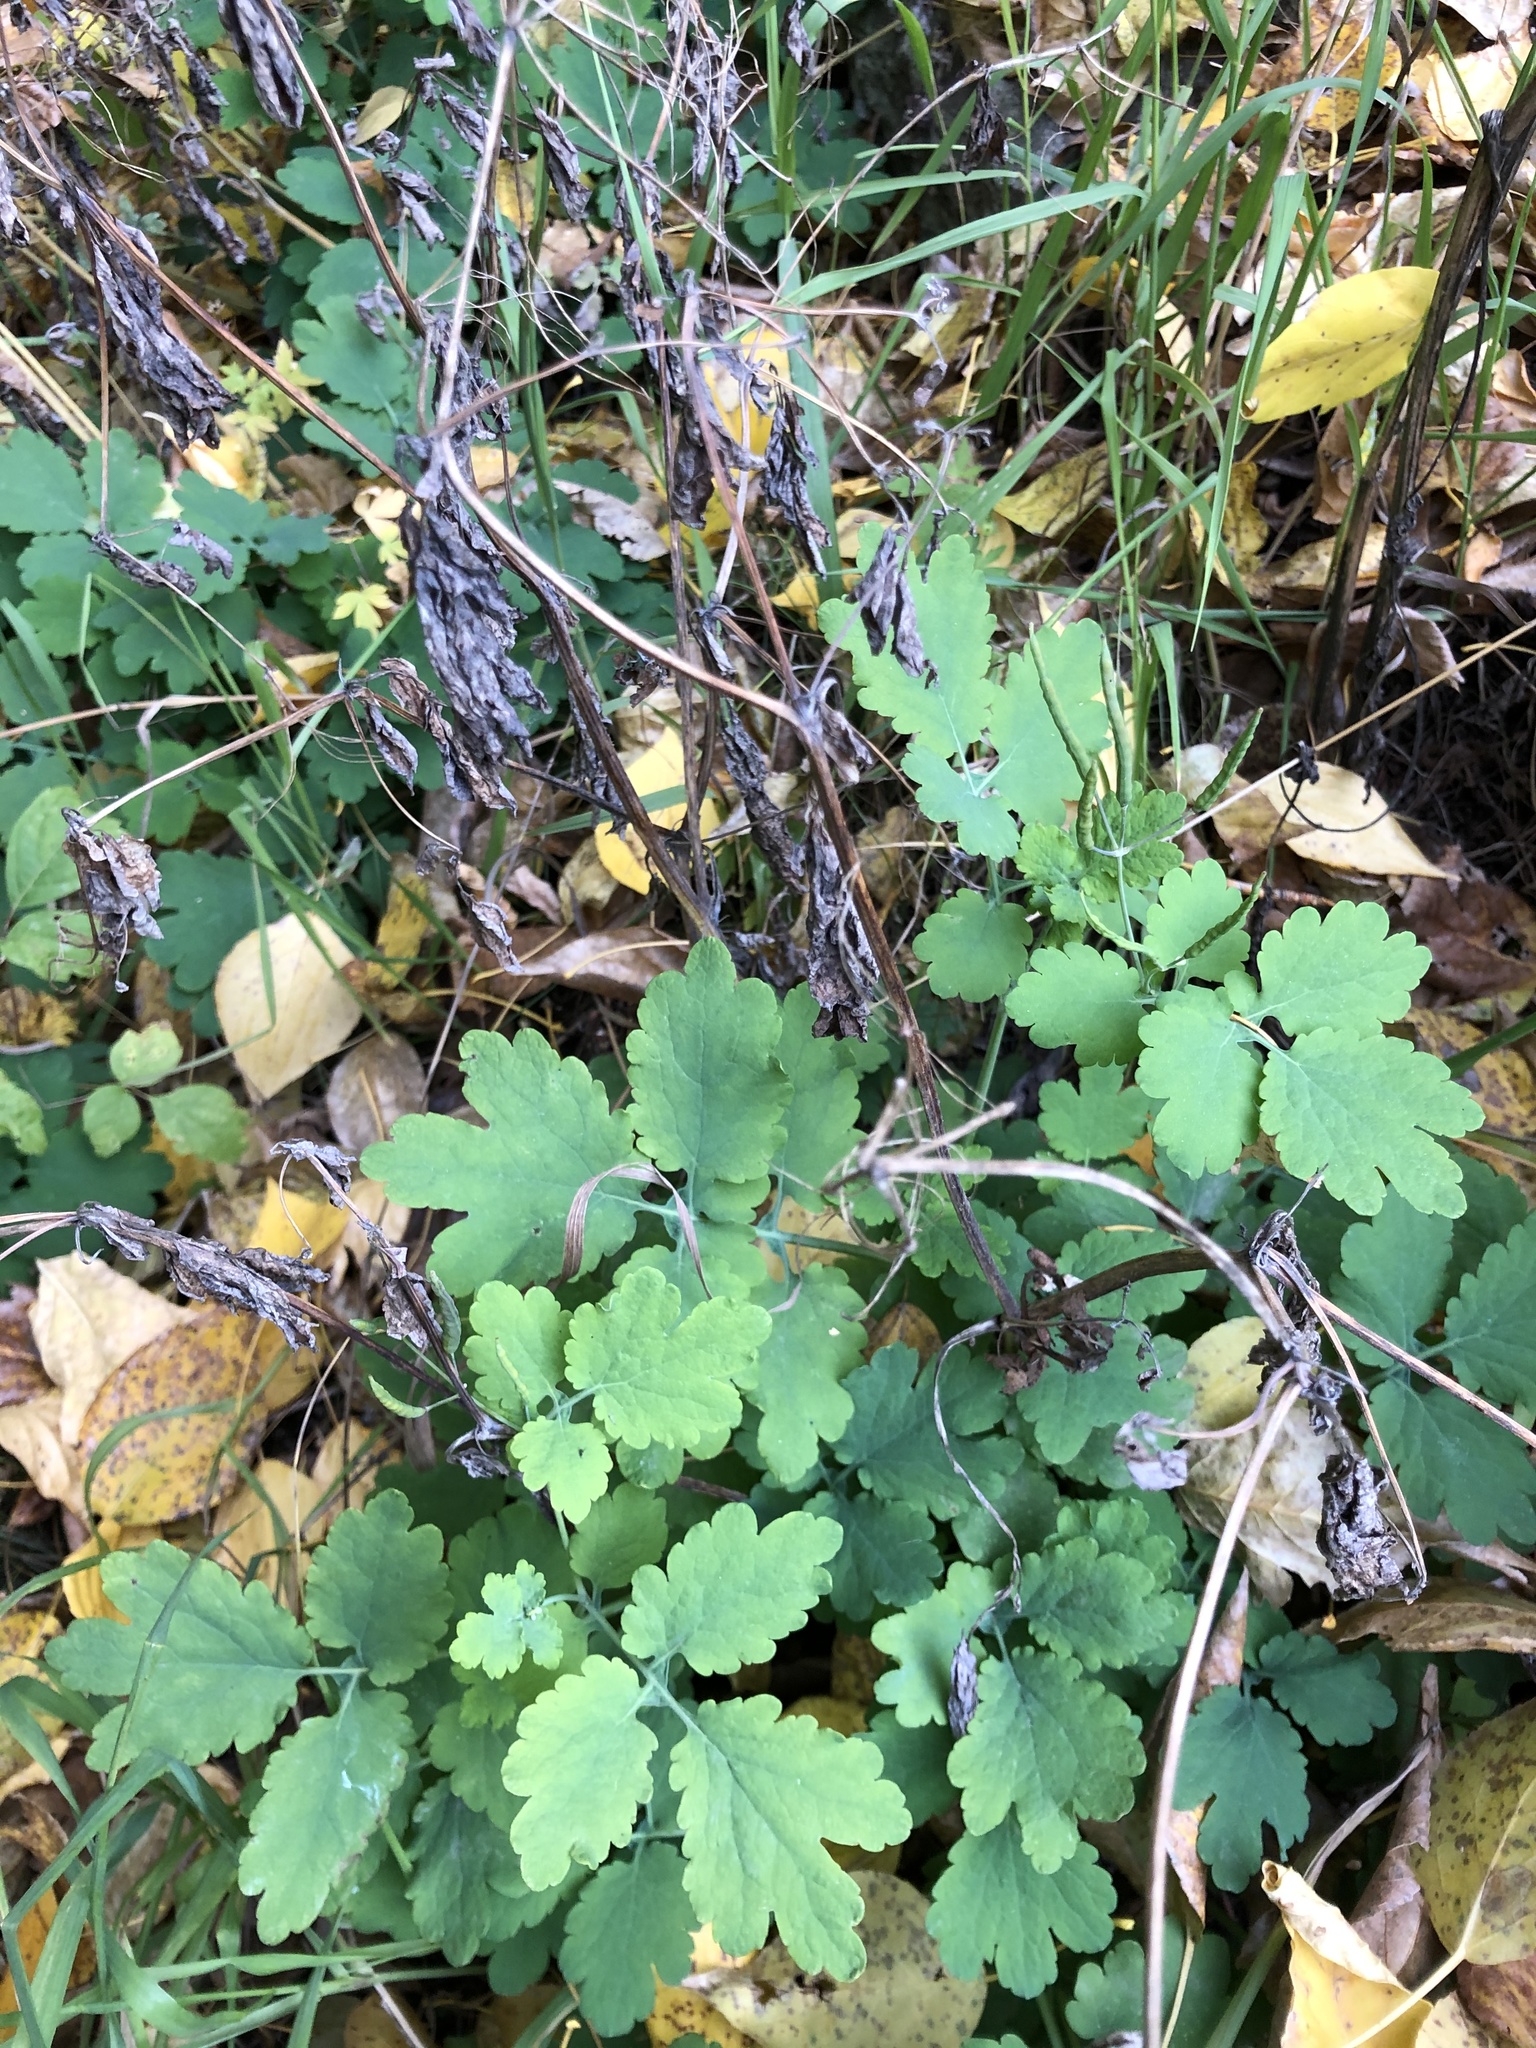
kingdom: Plantae
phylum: Tracheophyta
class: Magnoliopsida
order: Ranunculales
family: Papaveraceae
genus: Chelidonium
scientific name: Chelidonium majus
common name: Greater celandine
